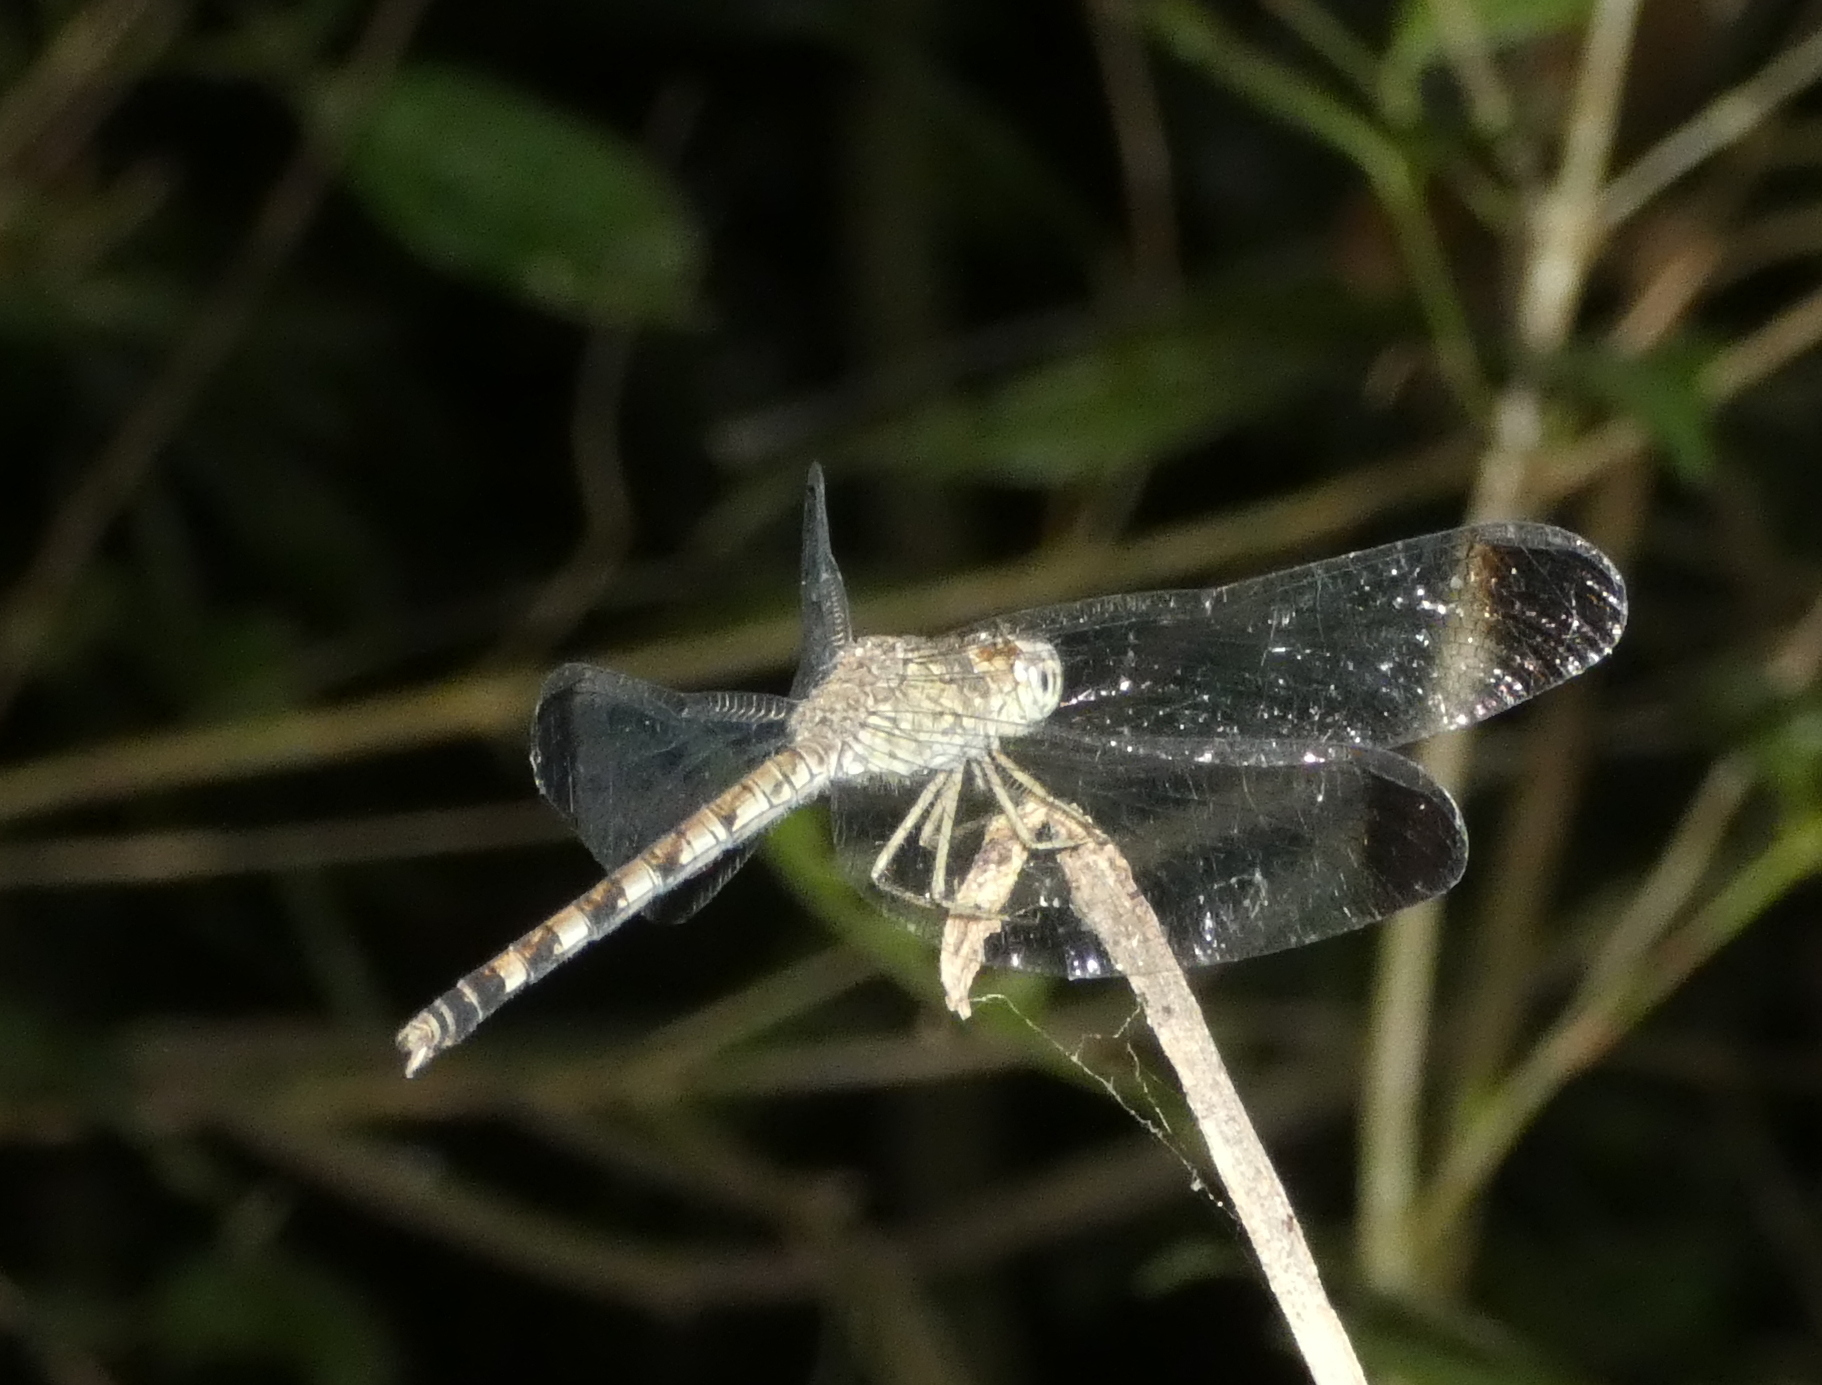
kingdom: Animalia
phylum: Arthropoda
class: Insecta
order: Odonata
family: Libellulidae
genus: Uracis
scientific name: Uracis imbuta
